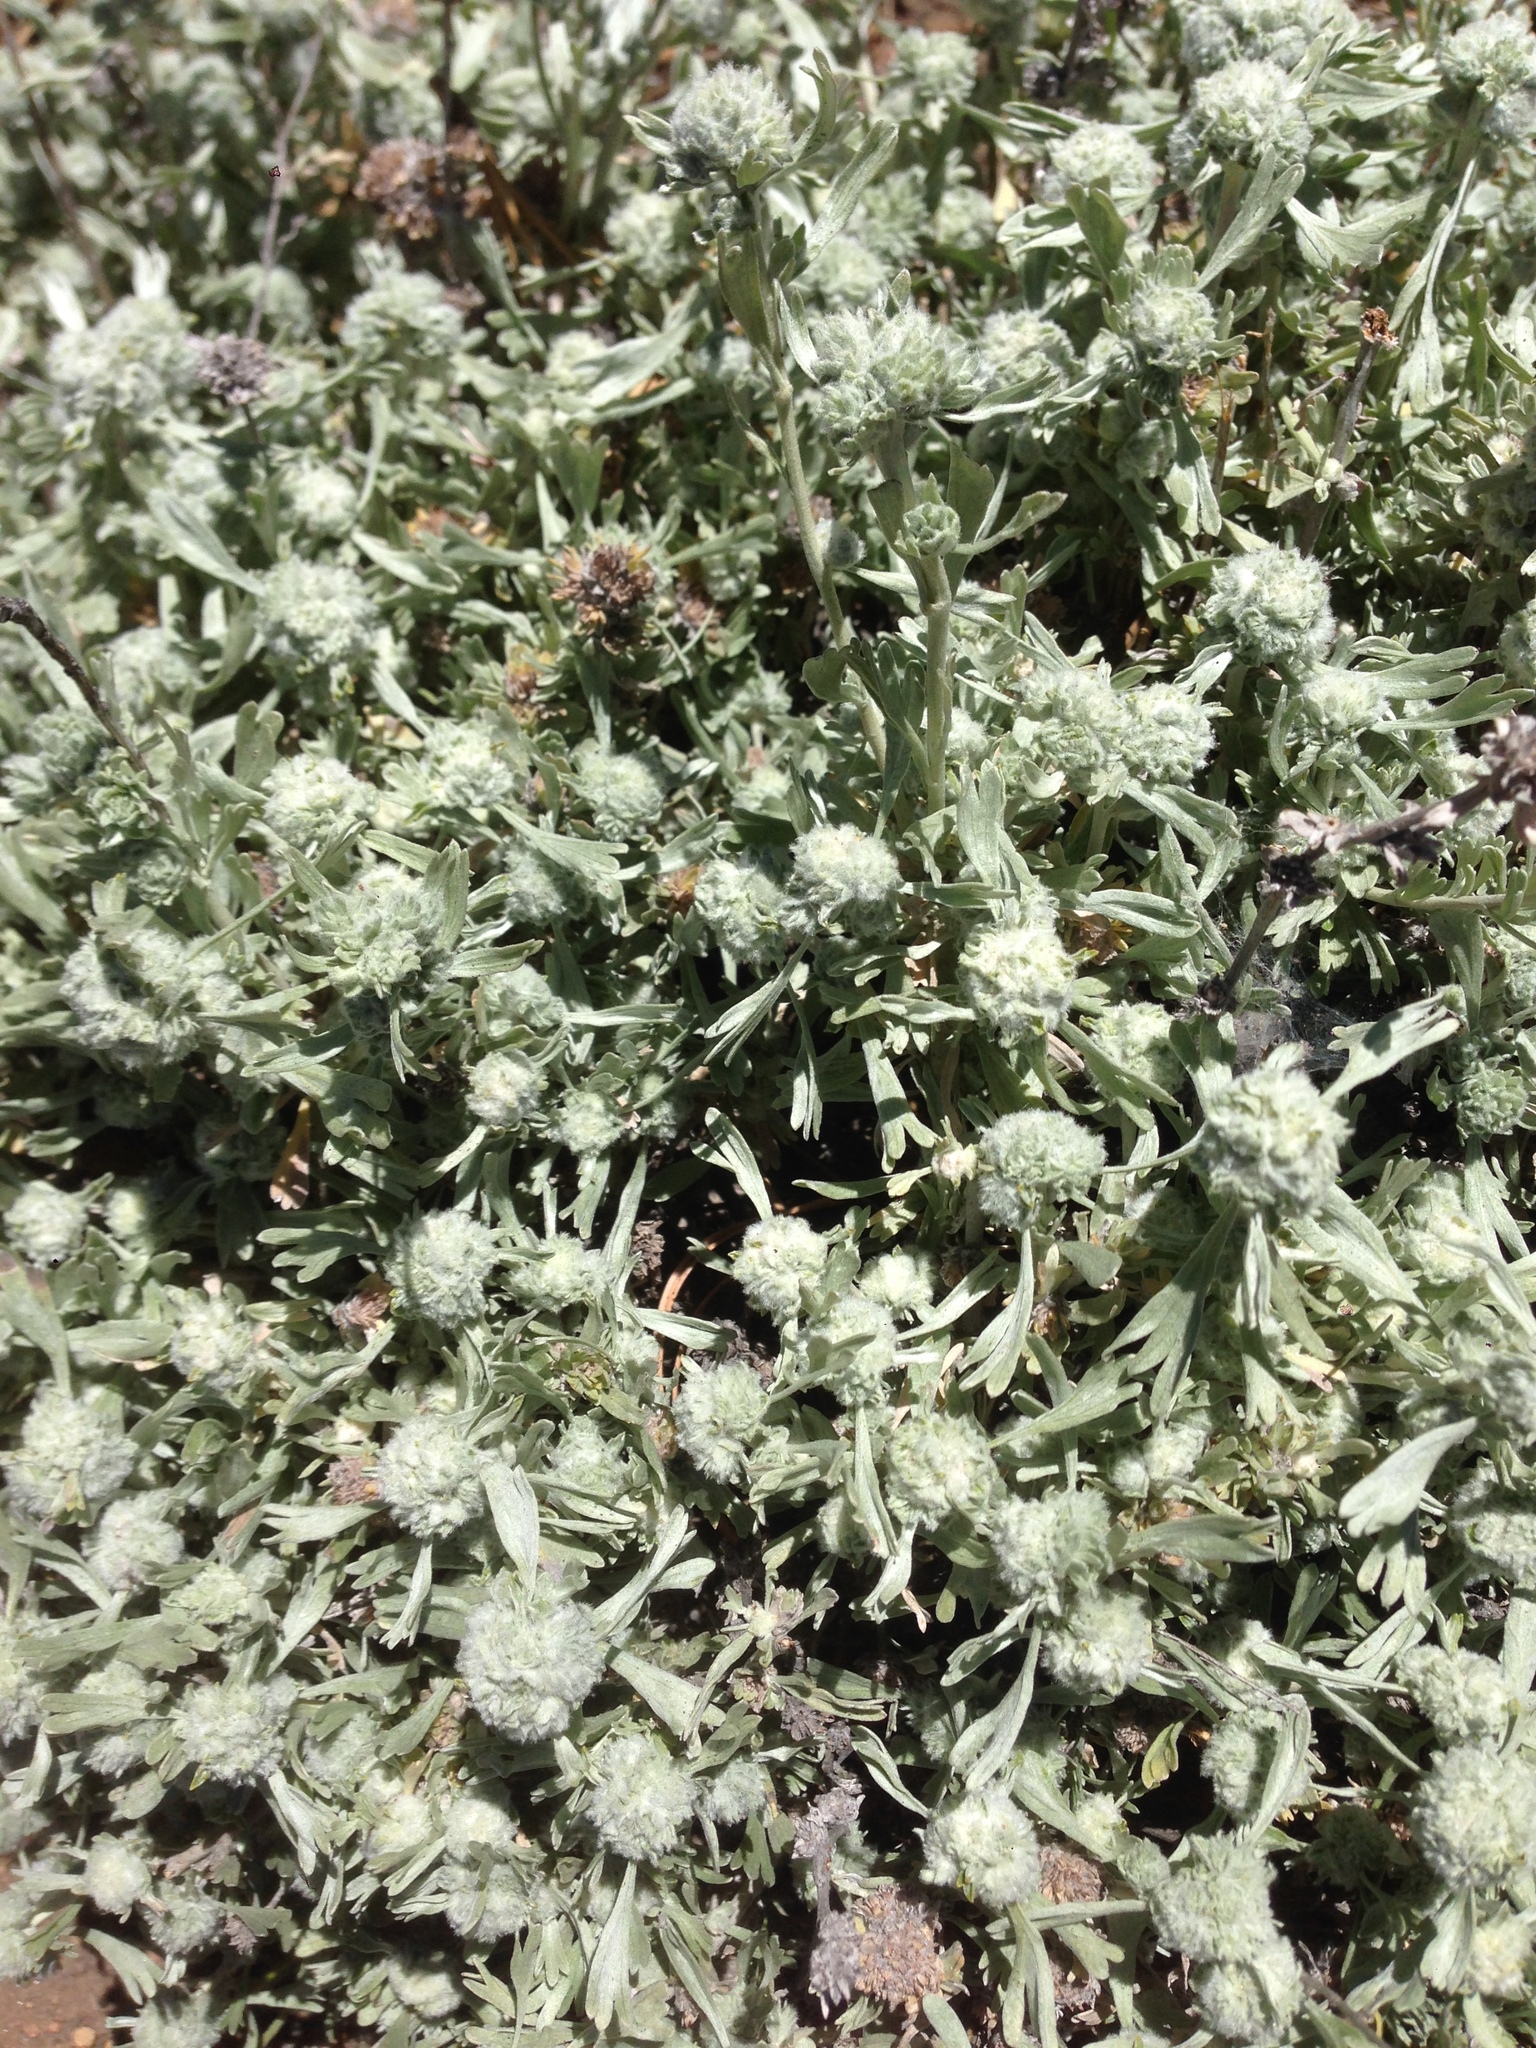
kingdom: Plantae
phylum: Tracheophyta
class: Magnoliopsida
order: Asterales
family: Asteraceae
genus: Artemisia
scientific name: Artemisia tridentata
